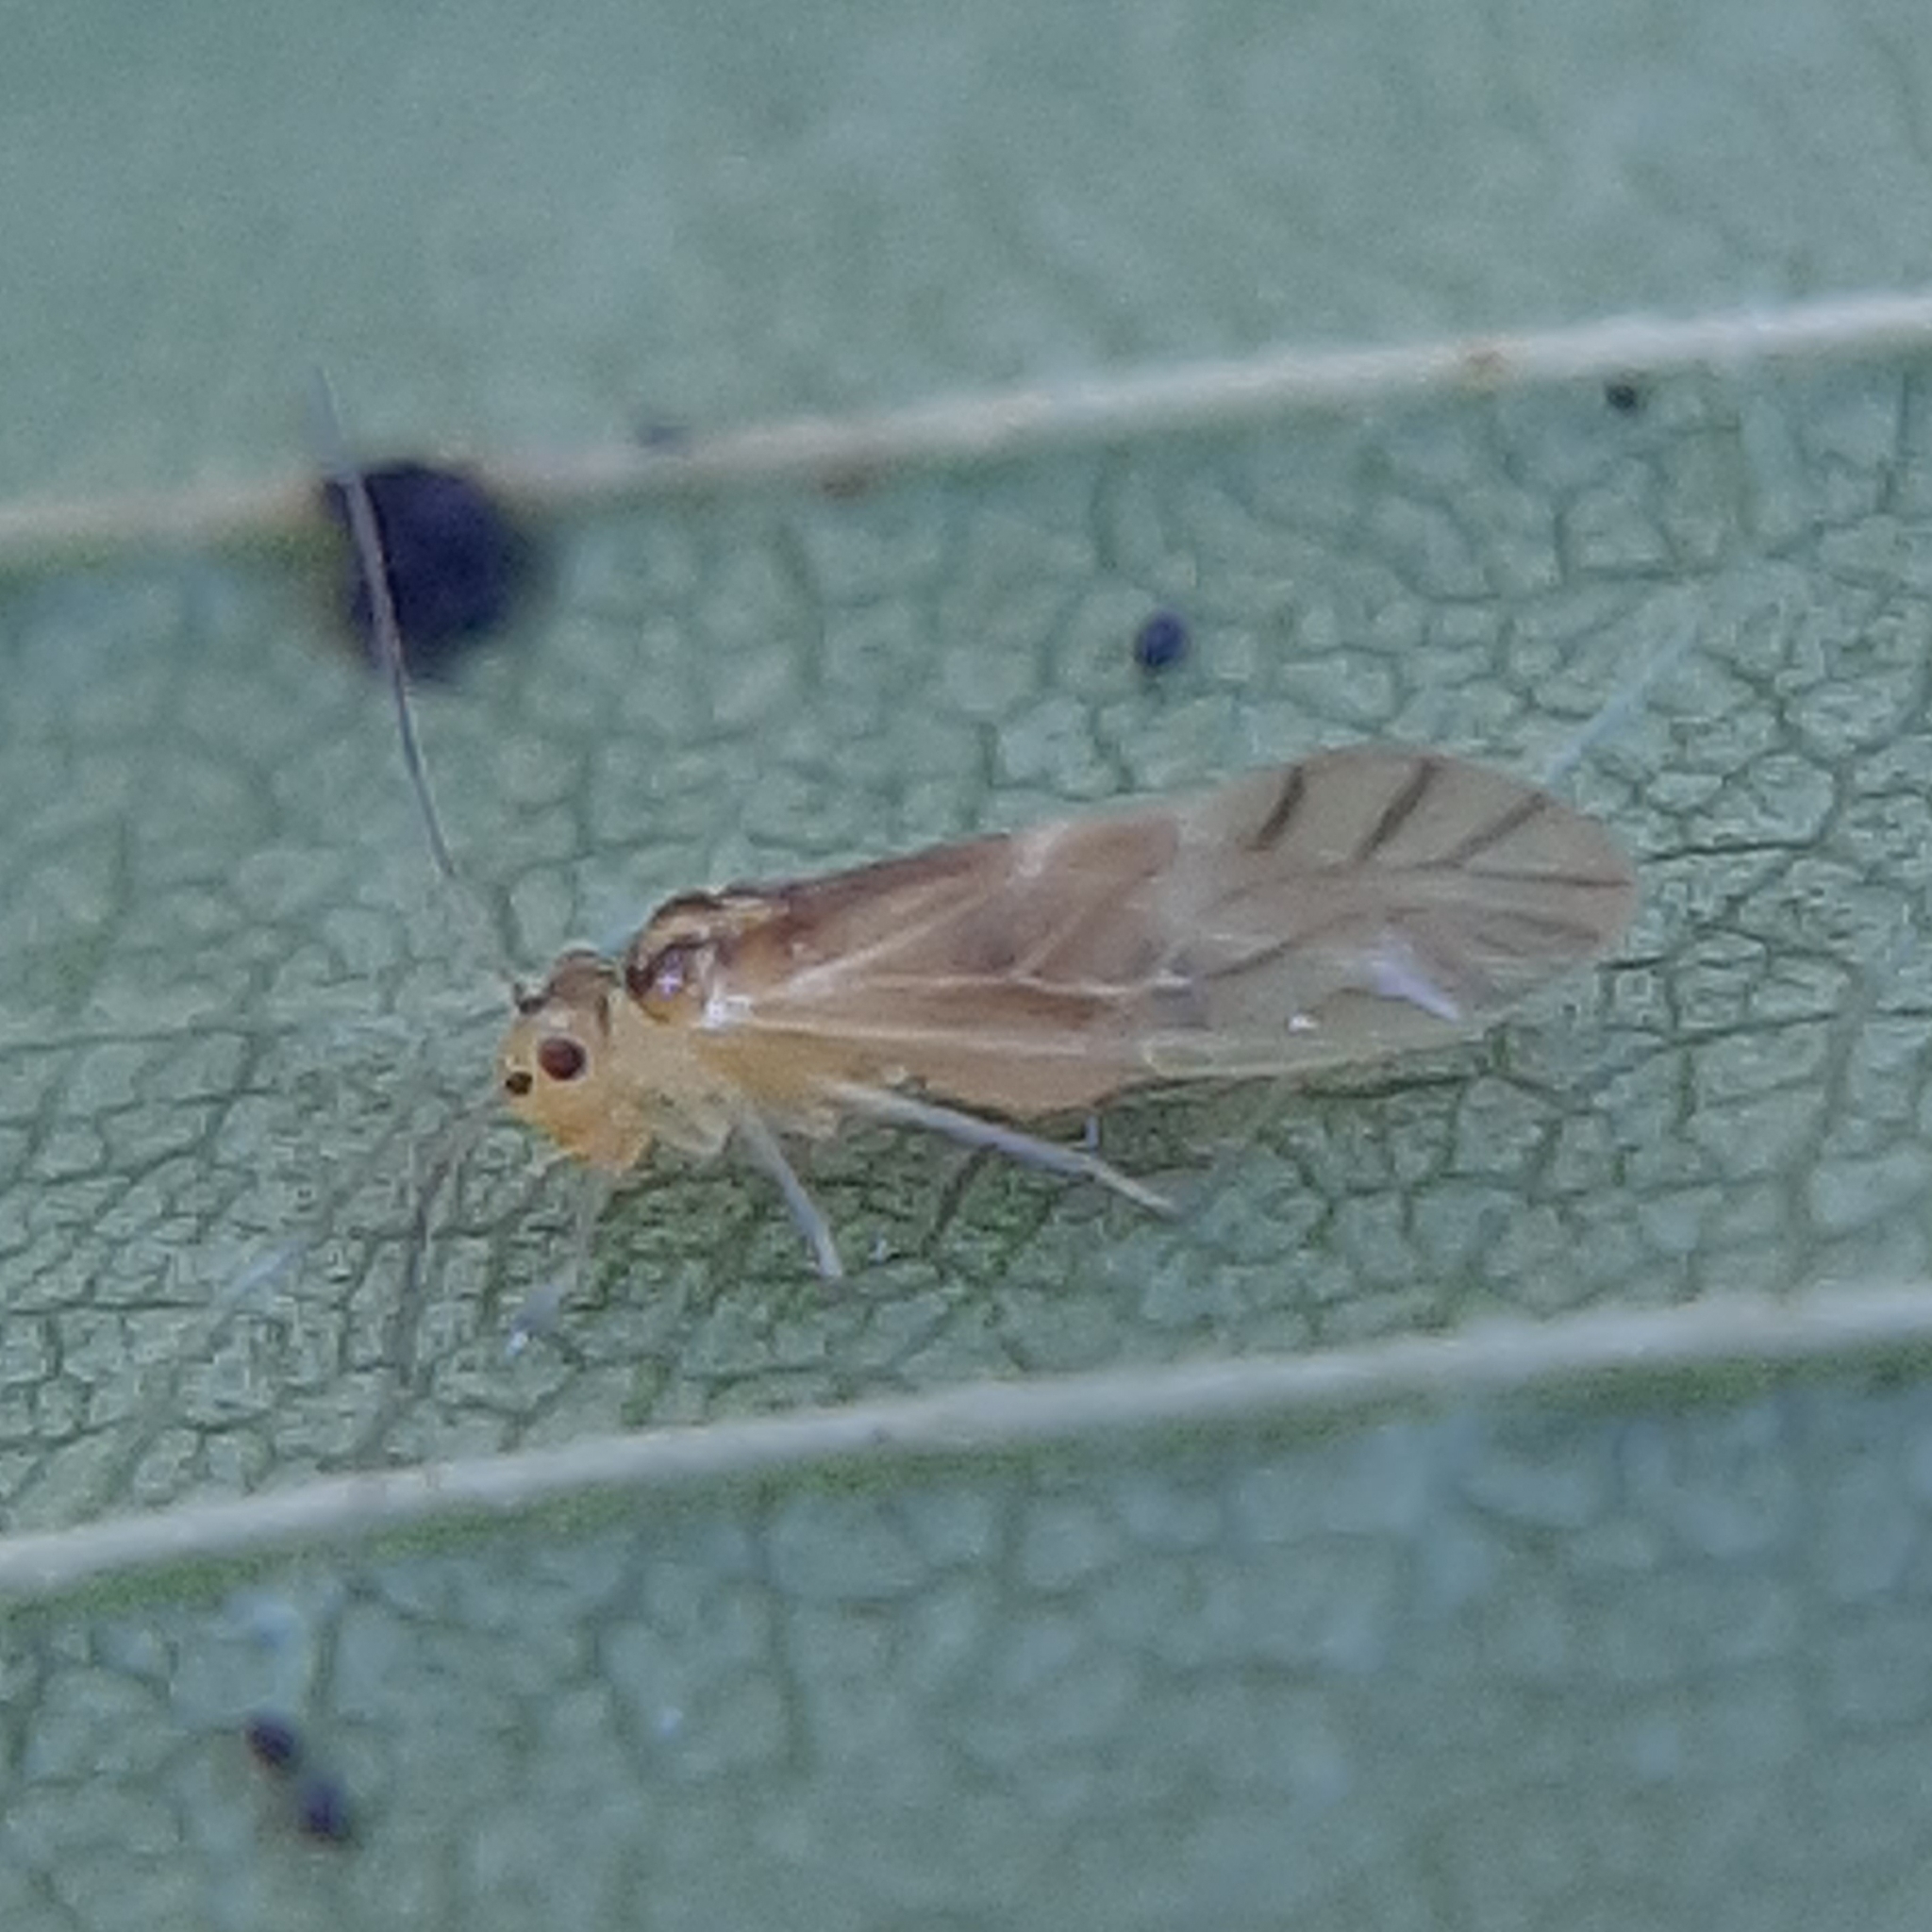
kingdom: Animalia
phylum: Arthropoda
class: Insecta
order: Psocodea
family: Caeciliusidae
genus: Valenzuela
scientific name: Valenzuela flavidus
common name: Yellow barklouse
